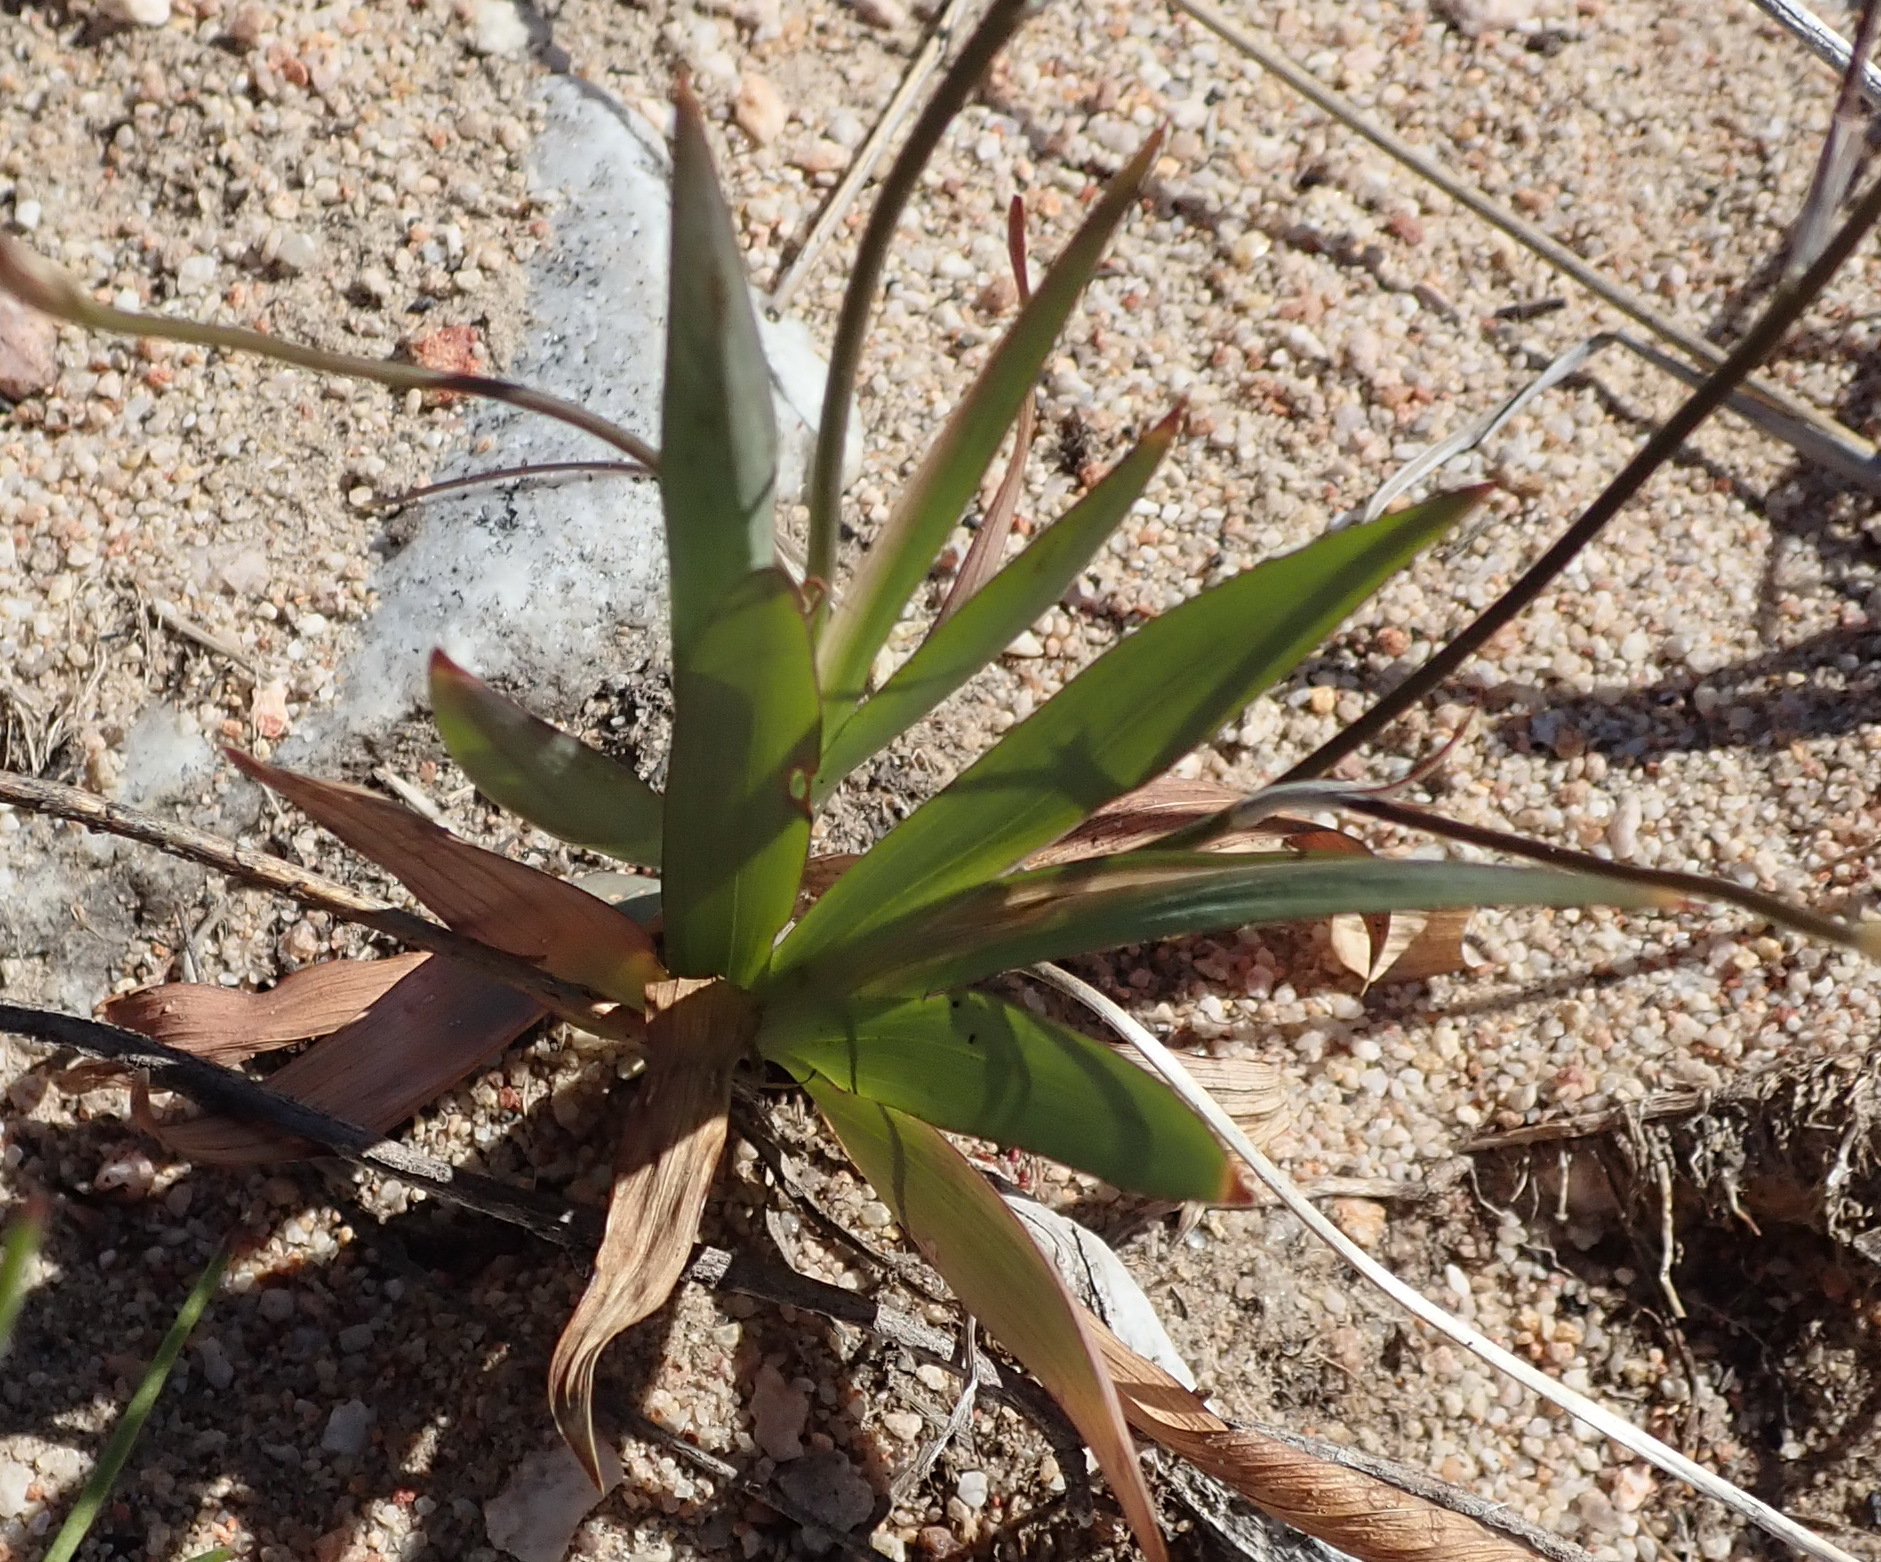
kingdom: Plantae
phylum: Tracheophyta
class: Liliopsida
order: Asparagales
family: Iridaceae
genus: Tritonia
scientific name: Tritonia pallida
